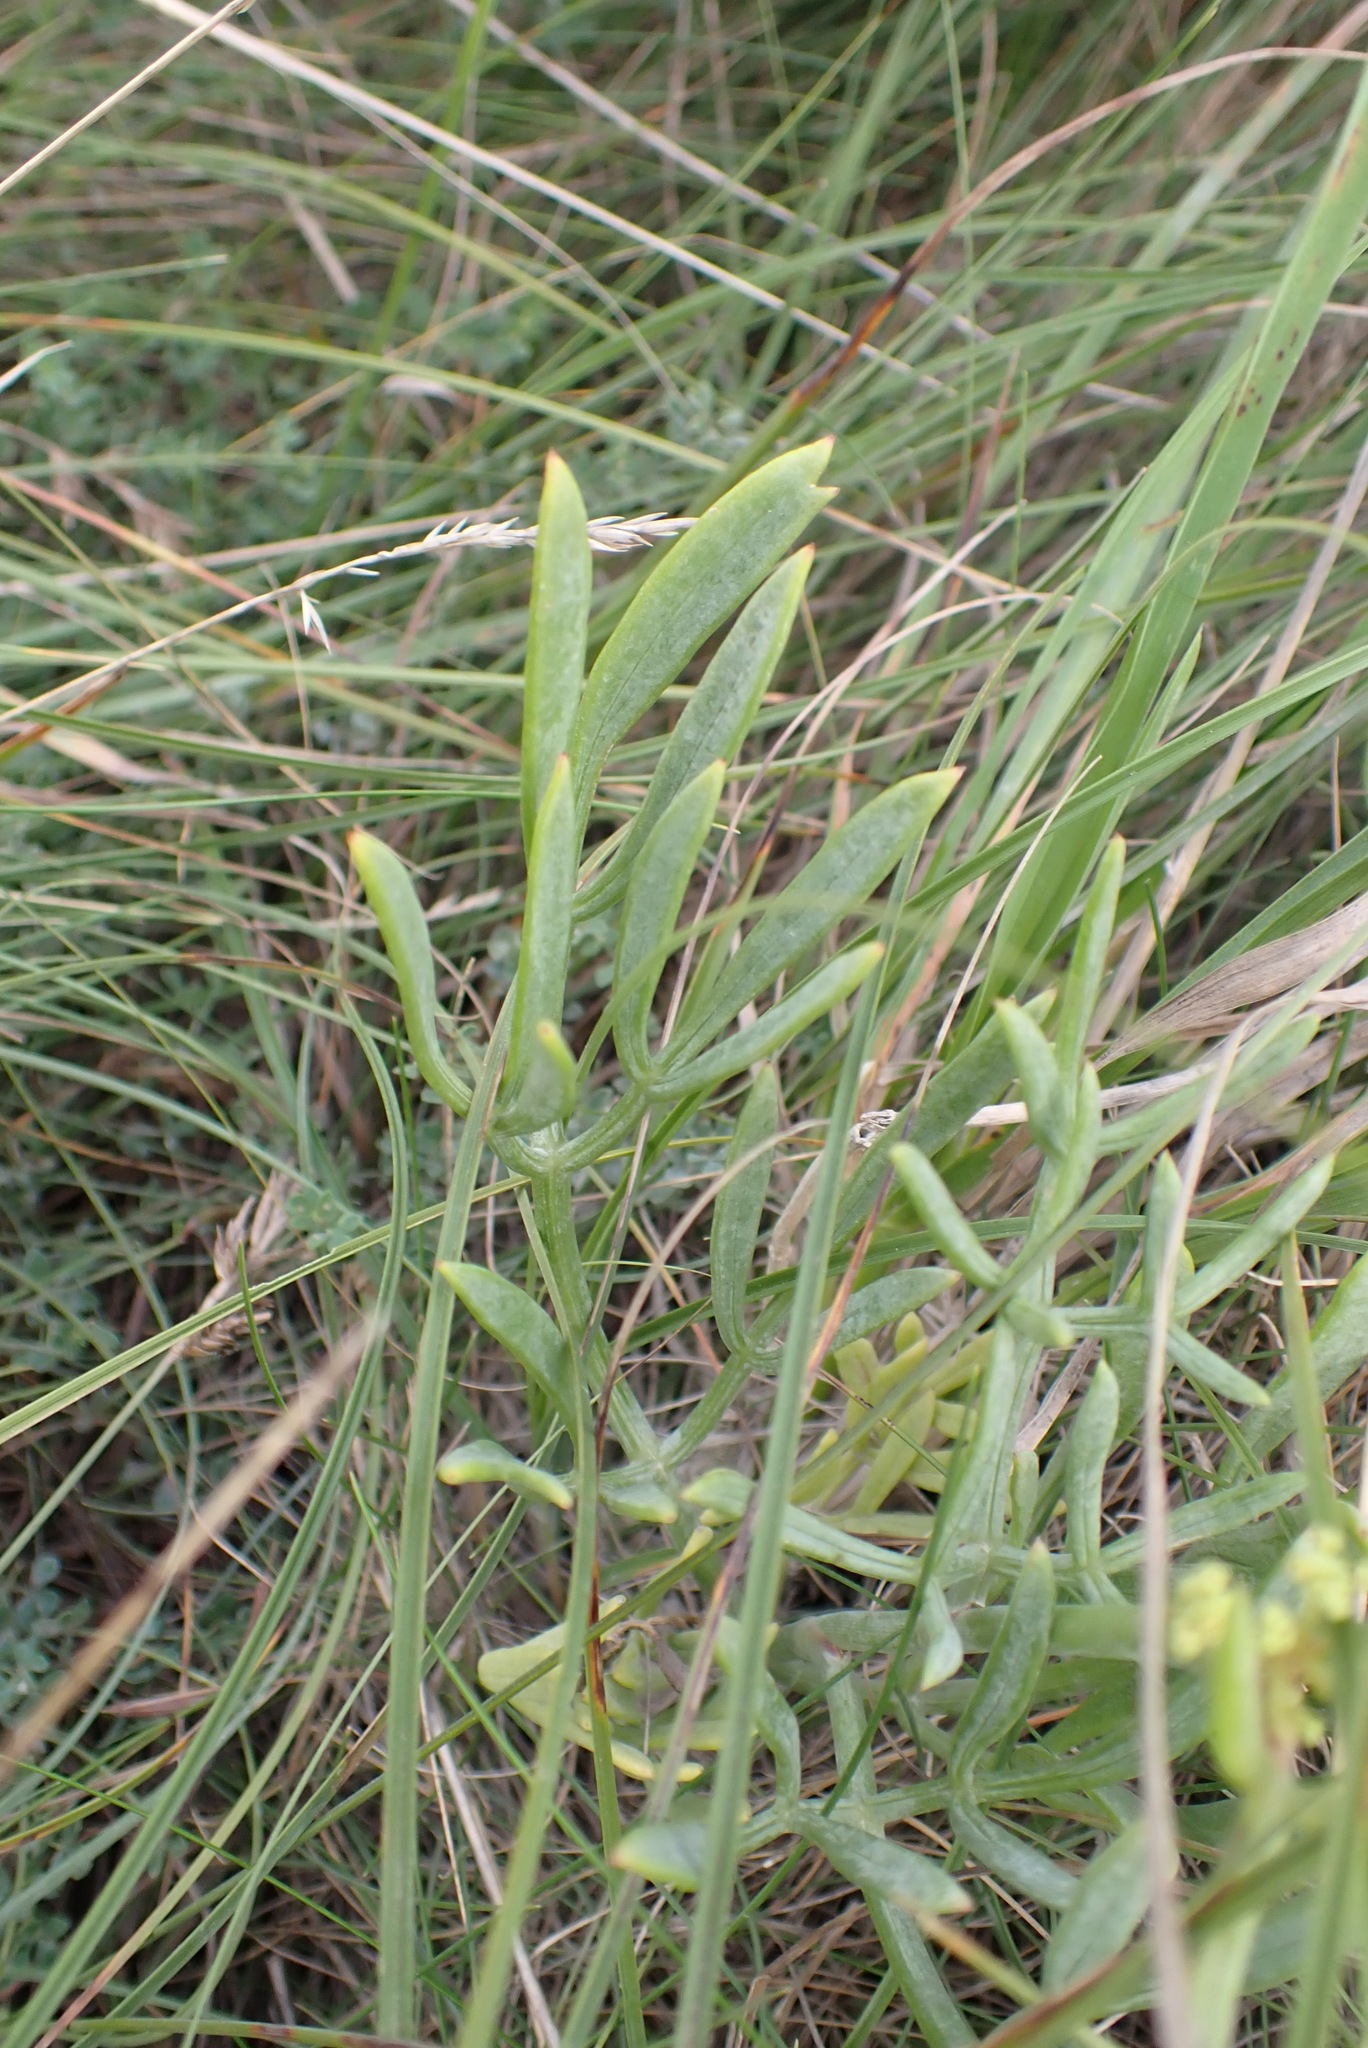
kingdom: Plantae
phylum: Tracheophyta
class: Magnoliopsida
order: Apiales
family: Apiaceae
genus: Crithmum
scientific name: Crithmum maritimum
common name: Rock samphire
